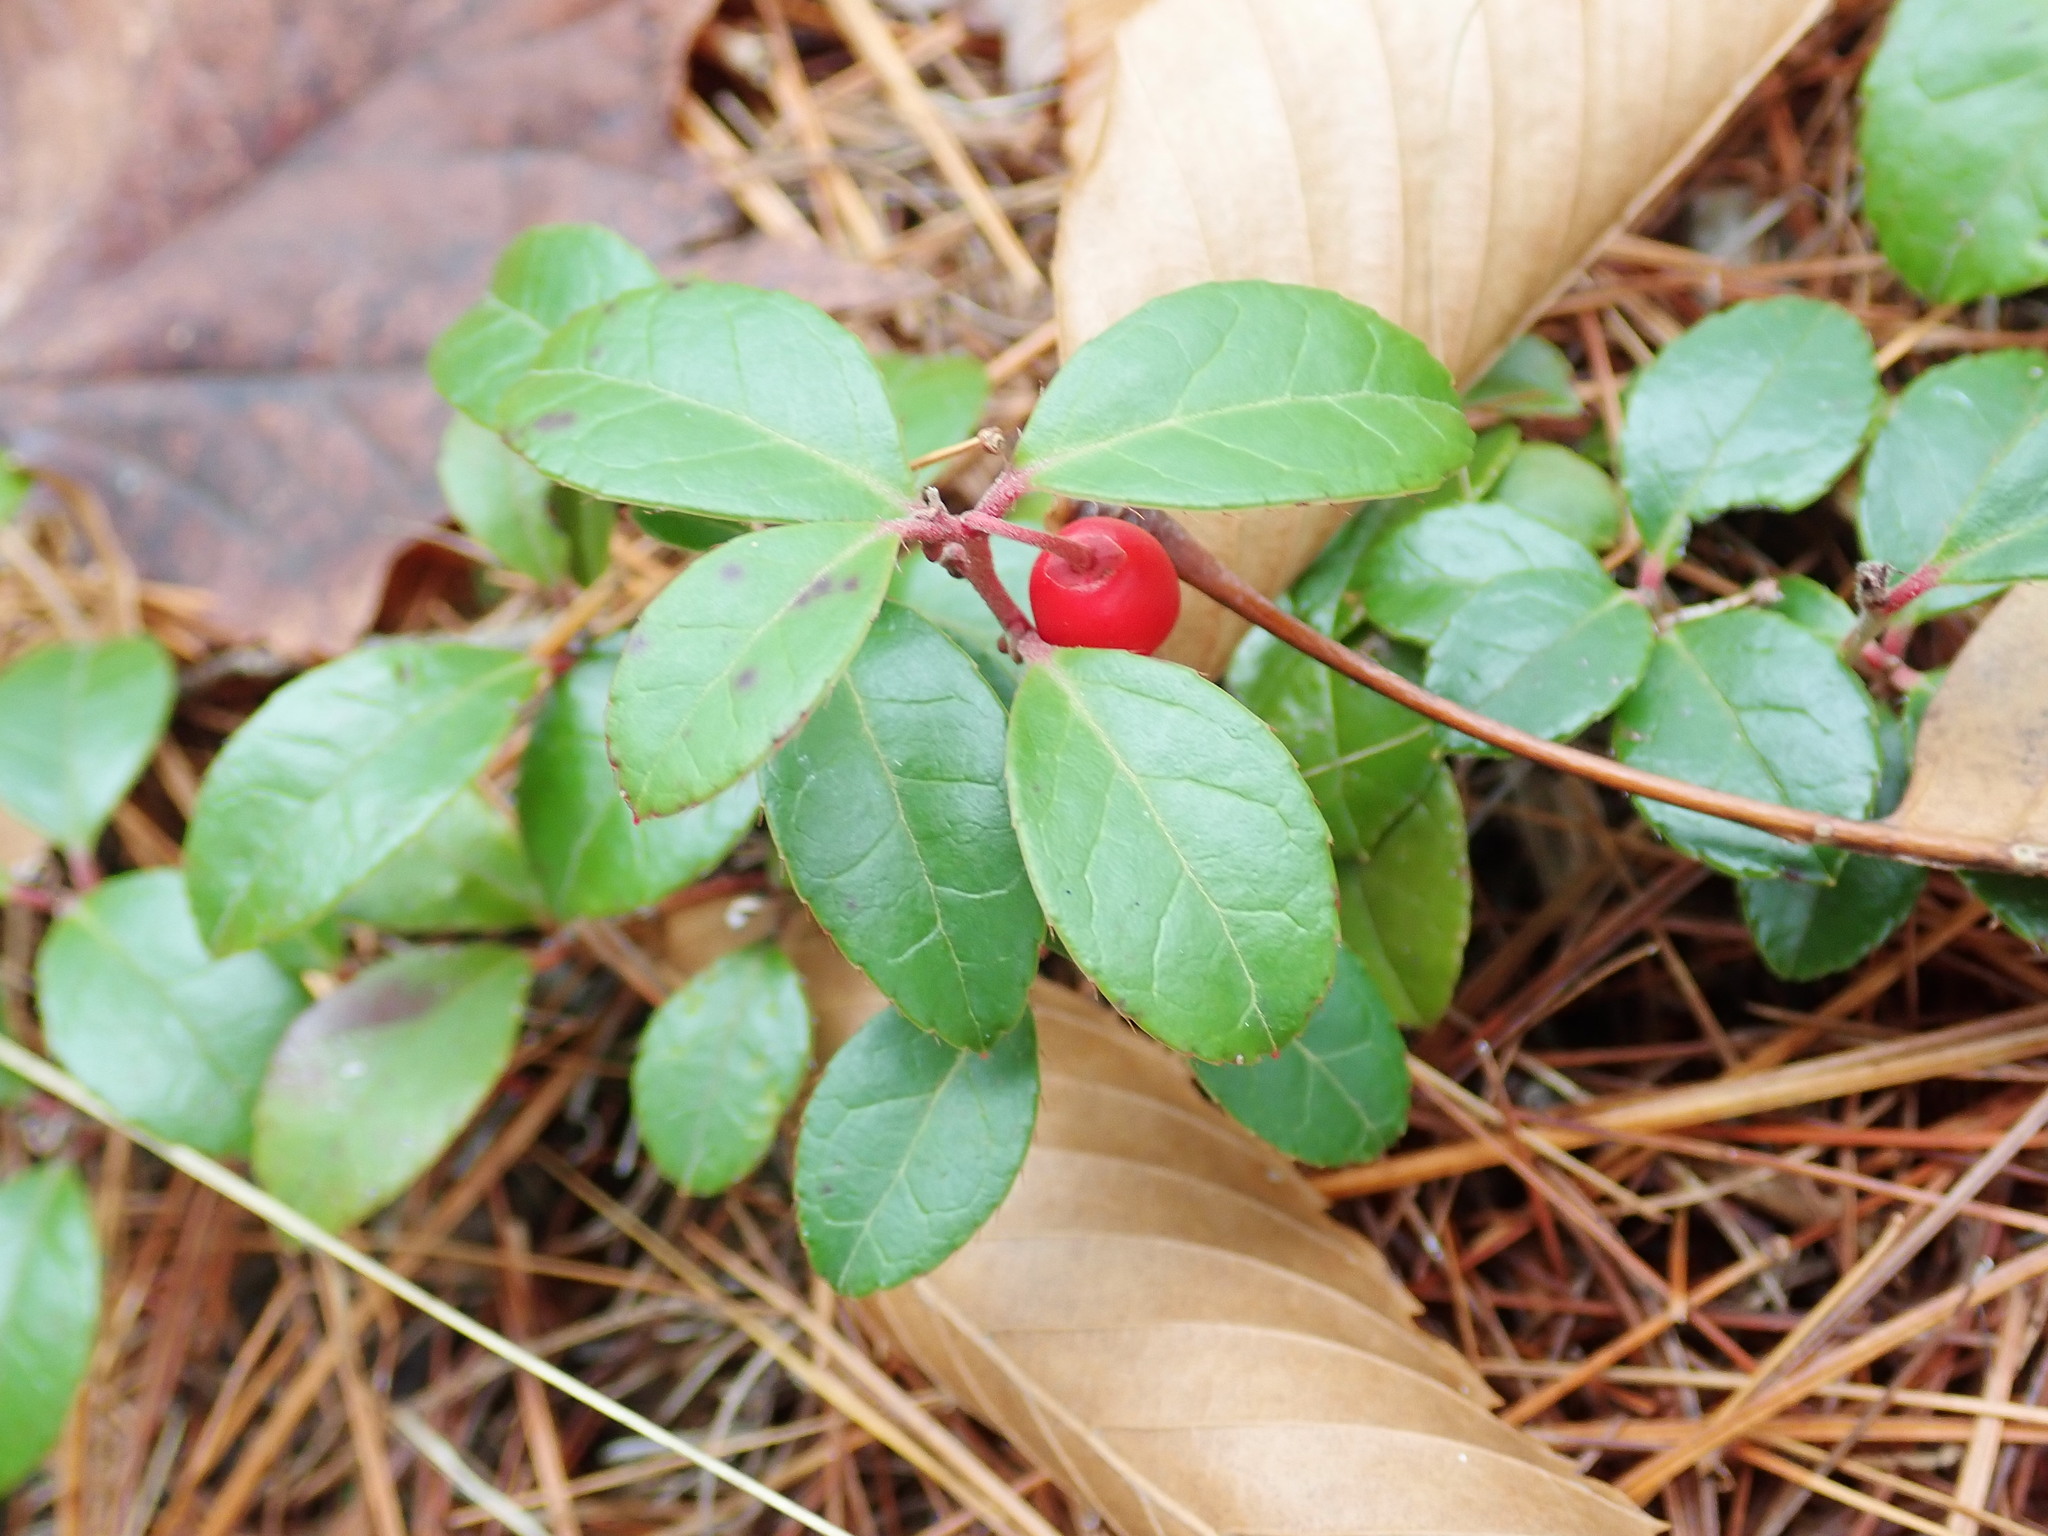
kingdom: Plantae
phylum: Tracheophyta
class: Magnoliopsida
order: Ericales
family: Ericaceae
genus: Gaultheria
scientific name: Gaultheria procumbens
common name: Checkerberry
